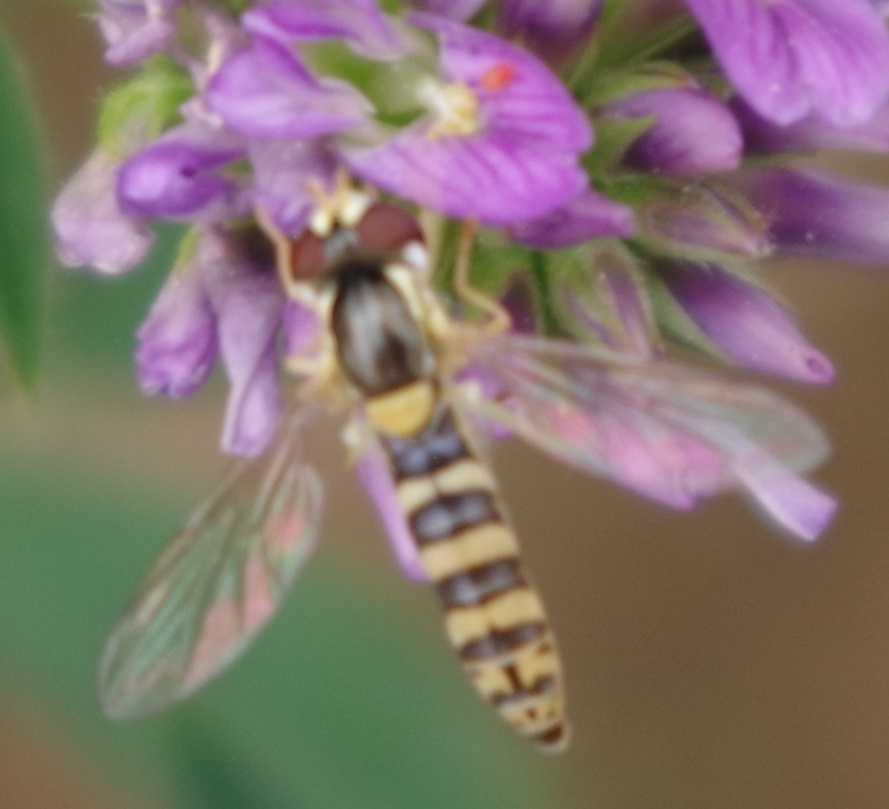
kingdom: Animalia
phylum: Arthropoda
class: Insecta
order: Diptera
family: Syrphidae
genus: Sphaerophoria
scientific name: Sphaerophoria
